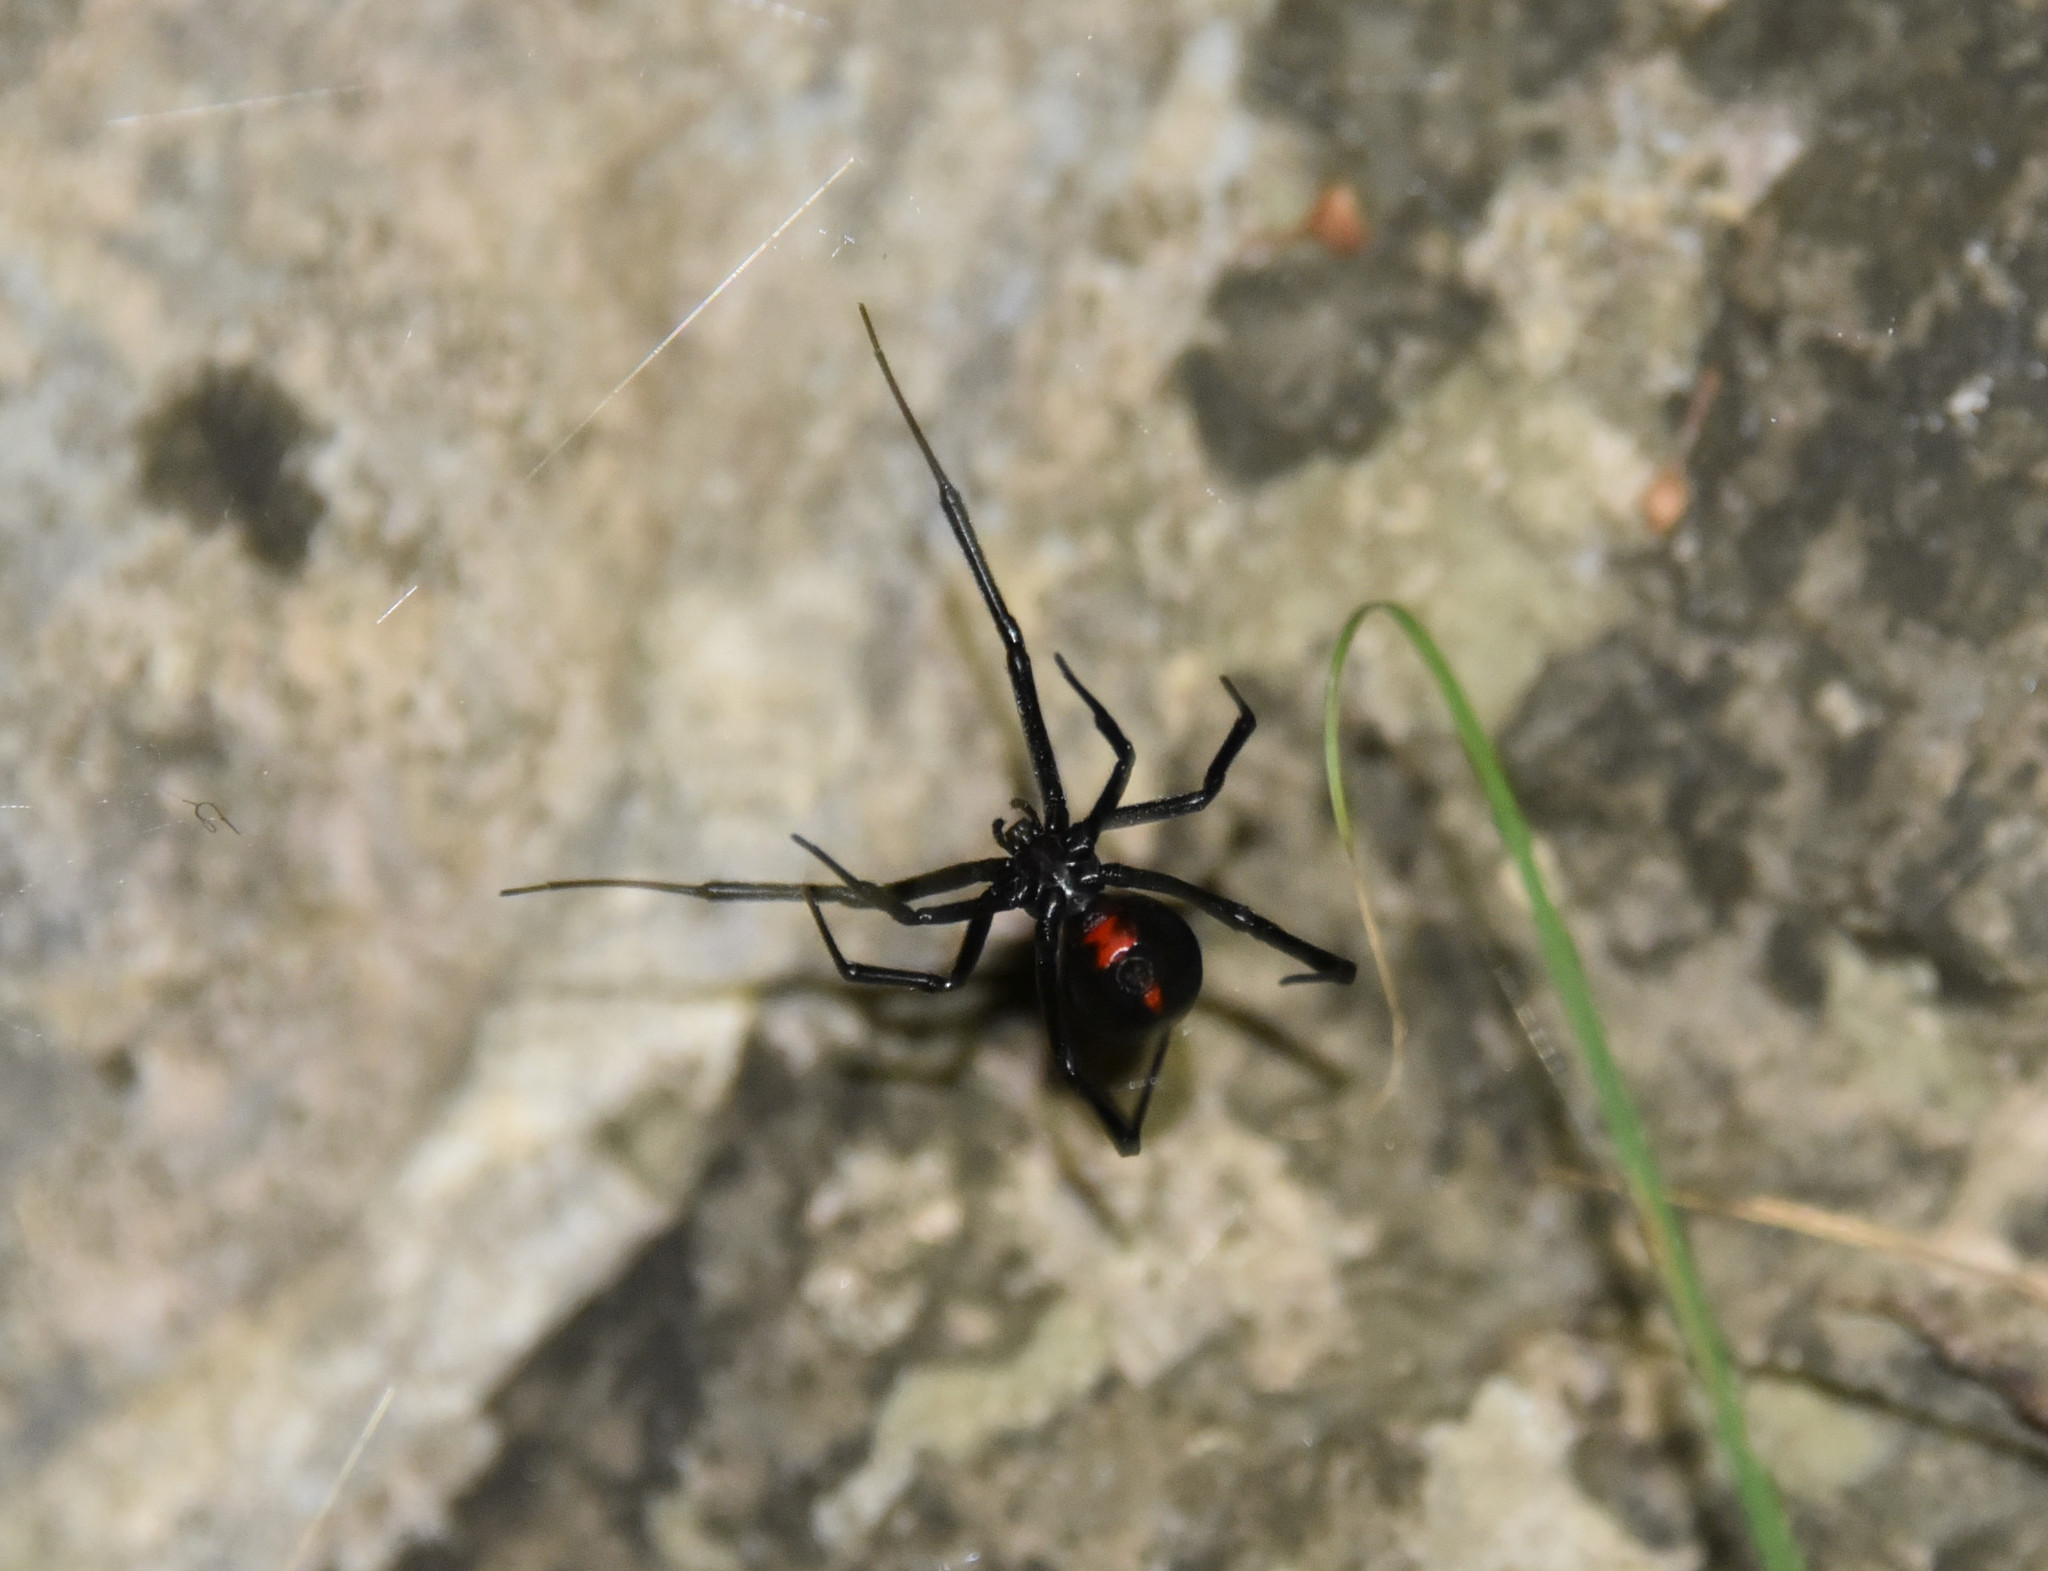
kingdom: Animalia
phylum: Arthropoda
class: Arachnida
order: Araneae
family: Theridiidae
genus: Latrodectus
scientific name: Latrodectus mactans
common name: Cobweb spiders
